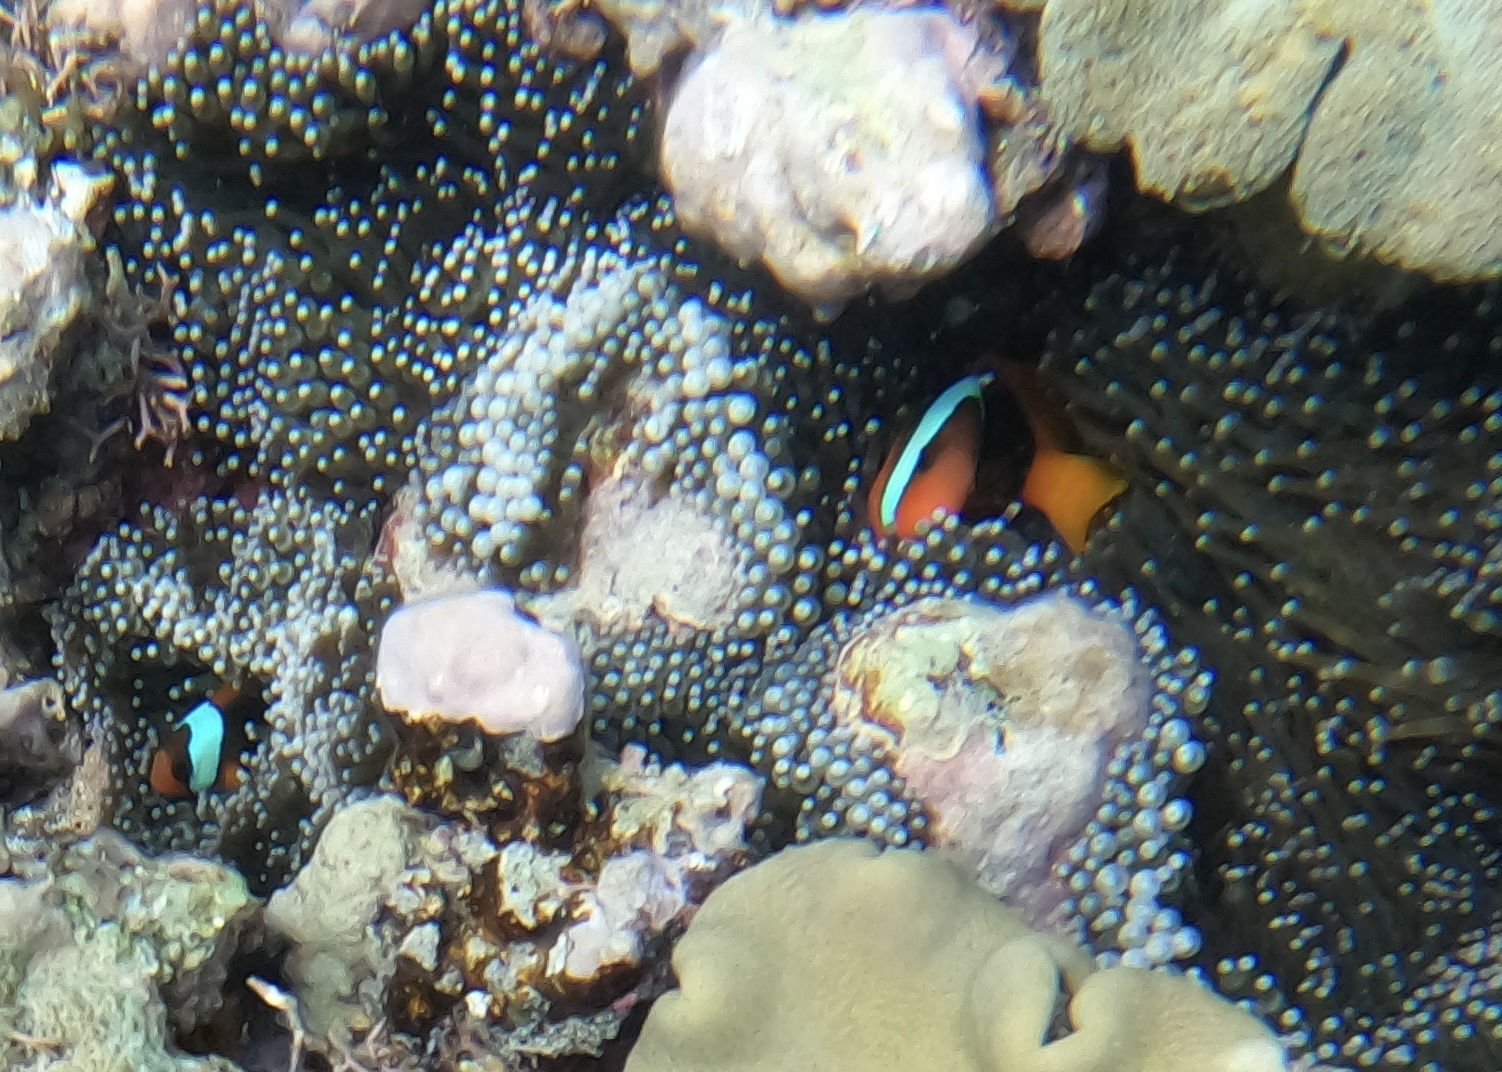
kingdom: Animalia
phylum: Chordata
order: Perciformes
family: Pomacentridae
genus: Amphiprion
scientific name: Amphiprion melanopus
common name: Black anemonefish
